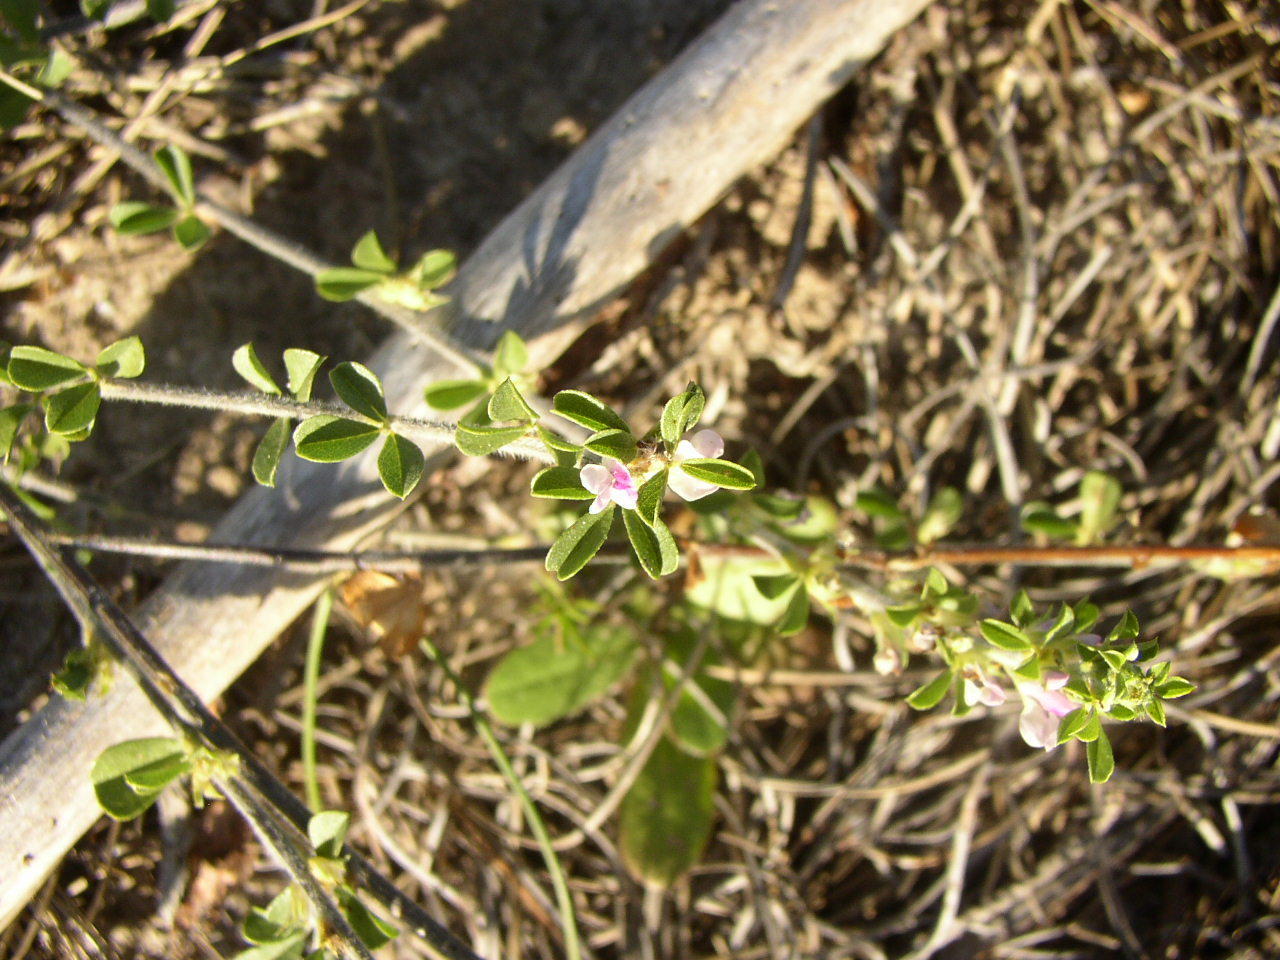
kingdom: Plantae
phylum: Tracheophyta
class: Magnoliopsida
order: Fabales
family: Fabaceae
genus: Psoralea
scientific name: Psoralea
